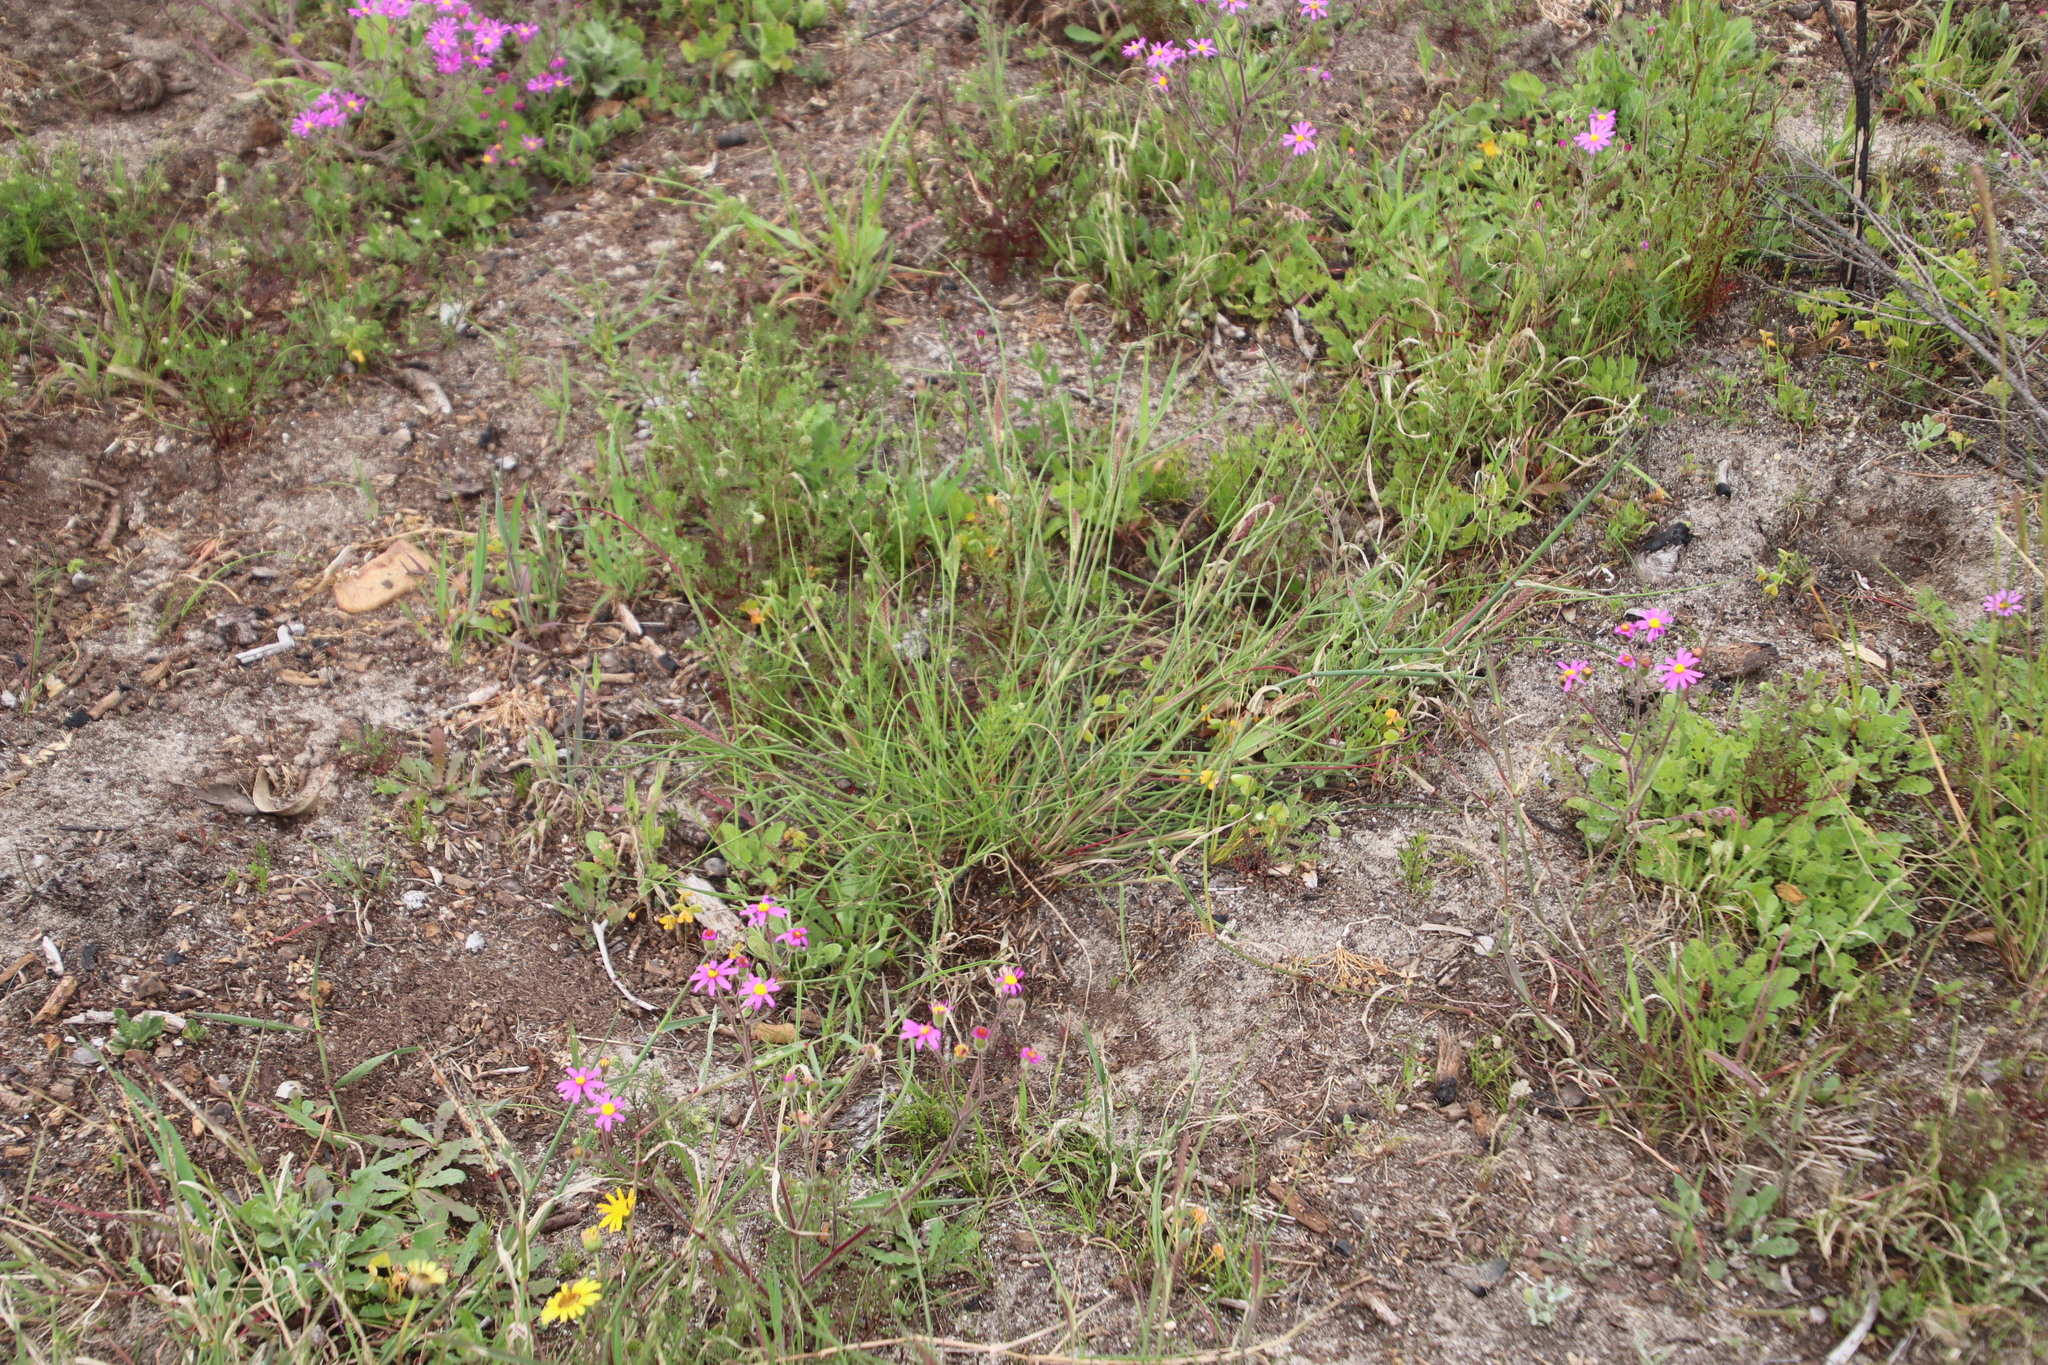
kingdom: Plantae
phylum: Tracheophyta
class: Liliopsida
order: Poales
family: Poaceae
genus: Tribolium
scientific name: Tribolium uniolae
